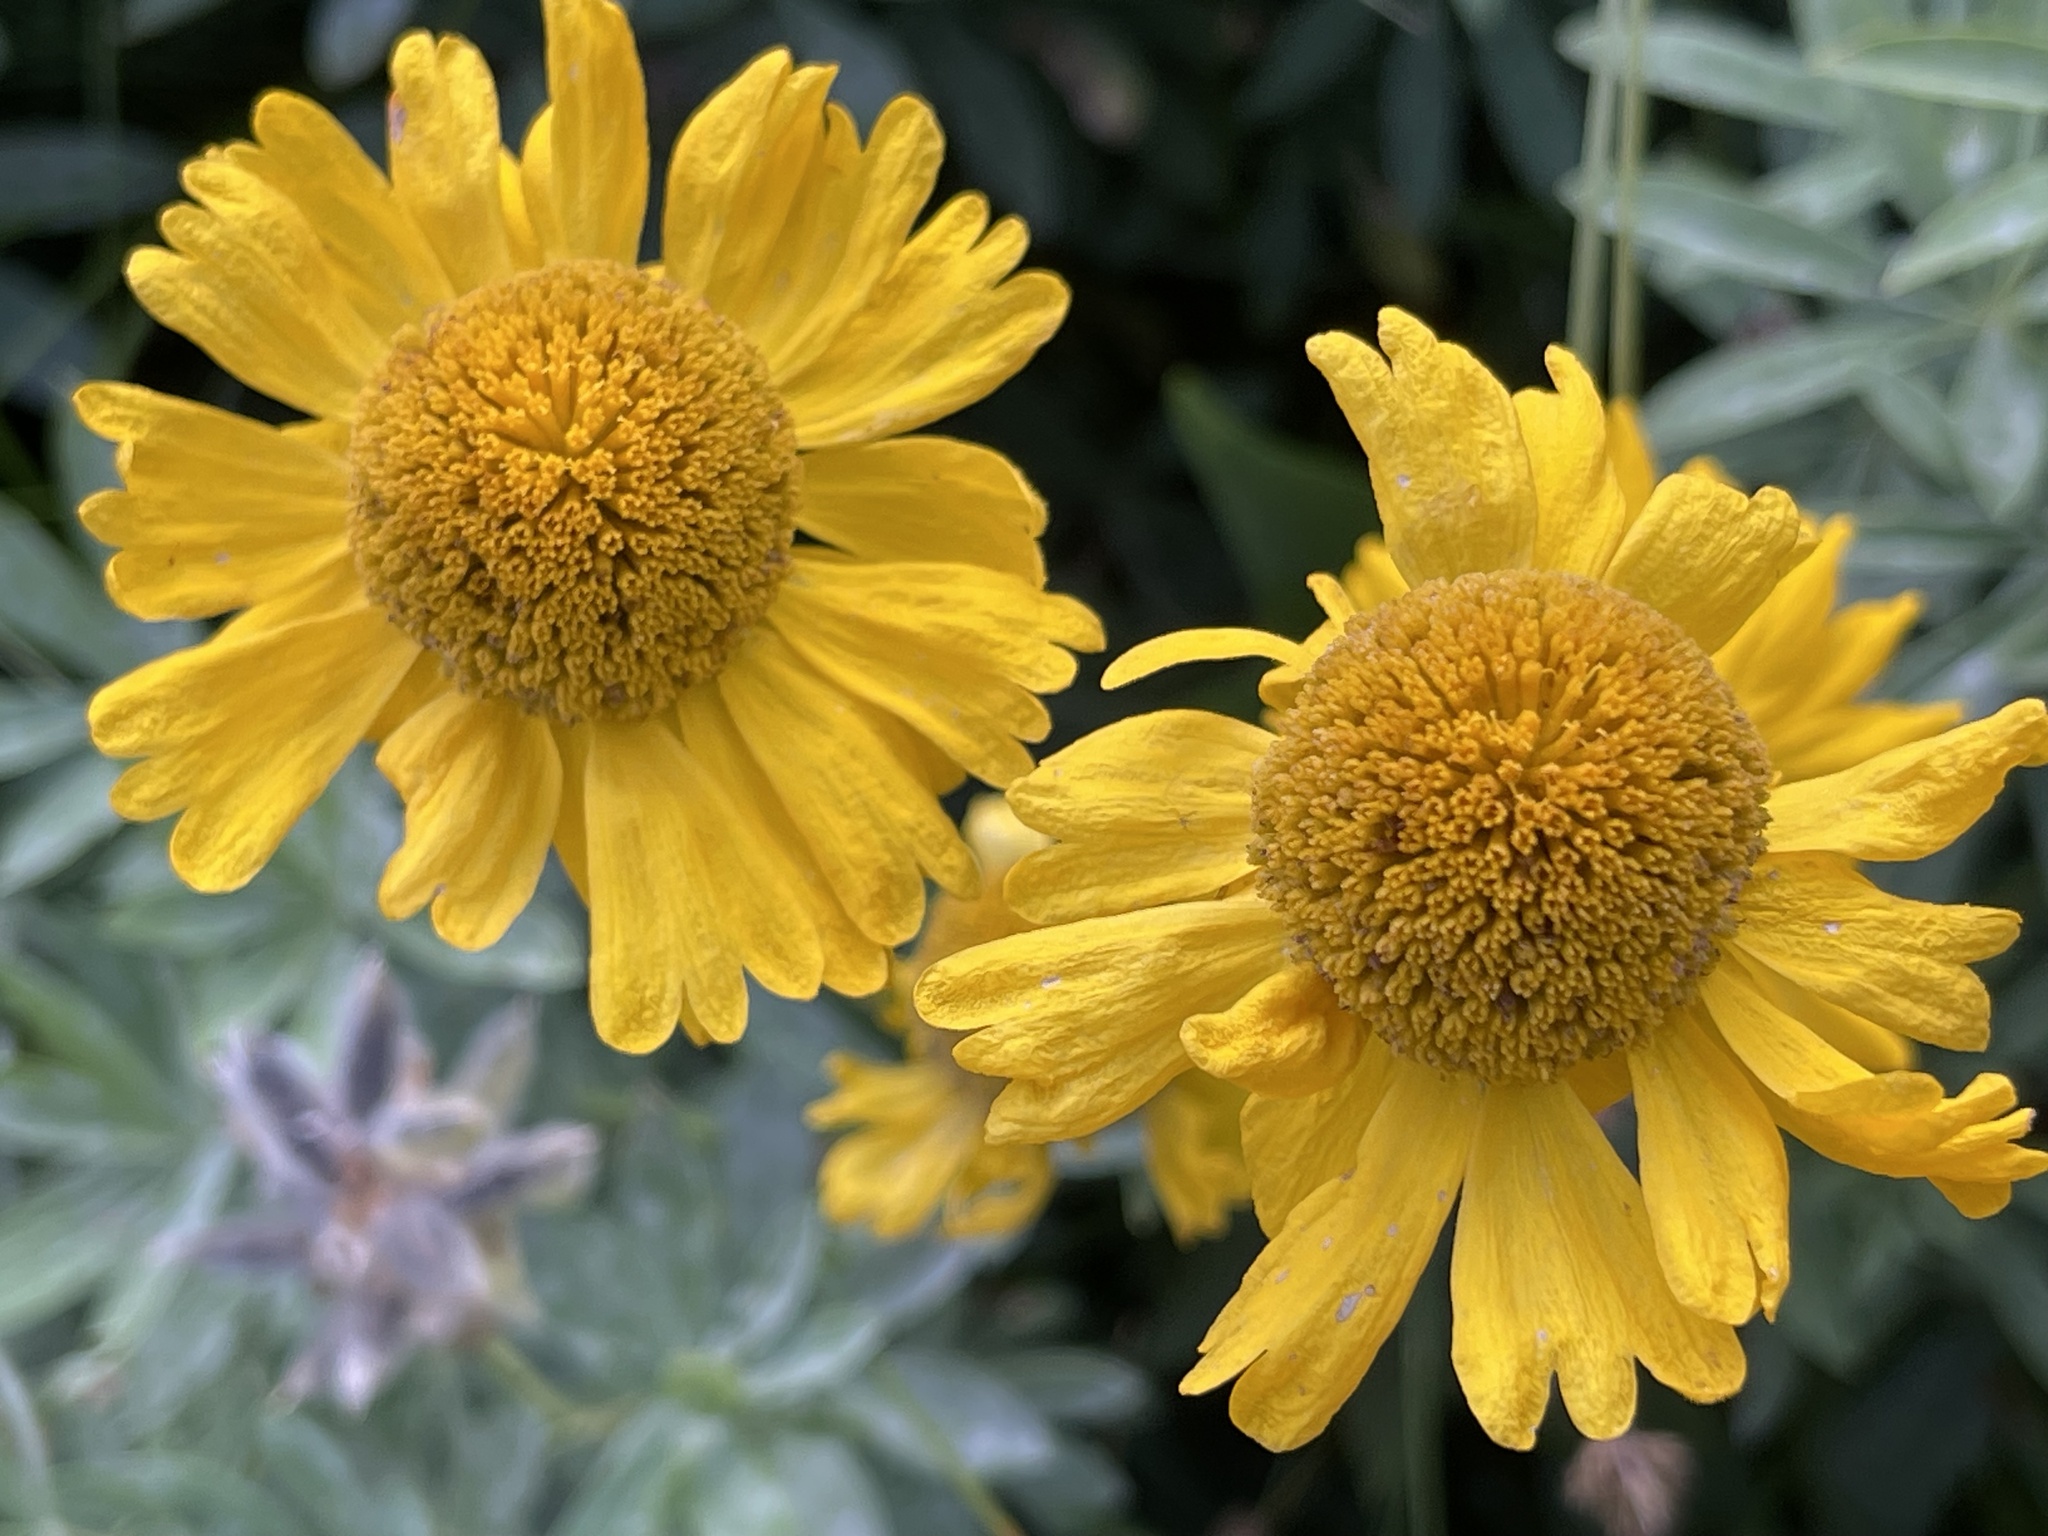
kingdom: Plantae
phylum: Tracheophyta
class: Magnoliopsida
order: Asterales
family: Asteraceae
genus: Helenium
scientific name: Helenium bigelovii
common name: Bigelow's sneezeweed
